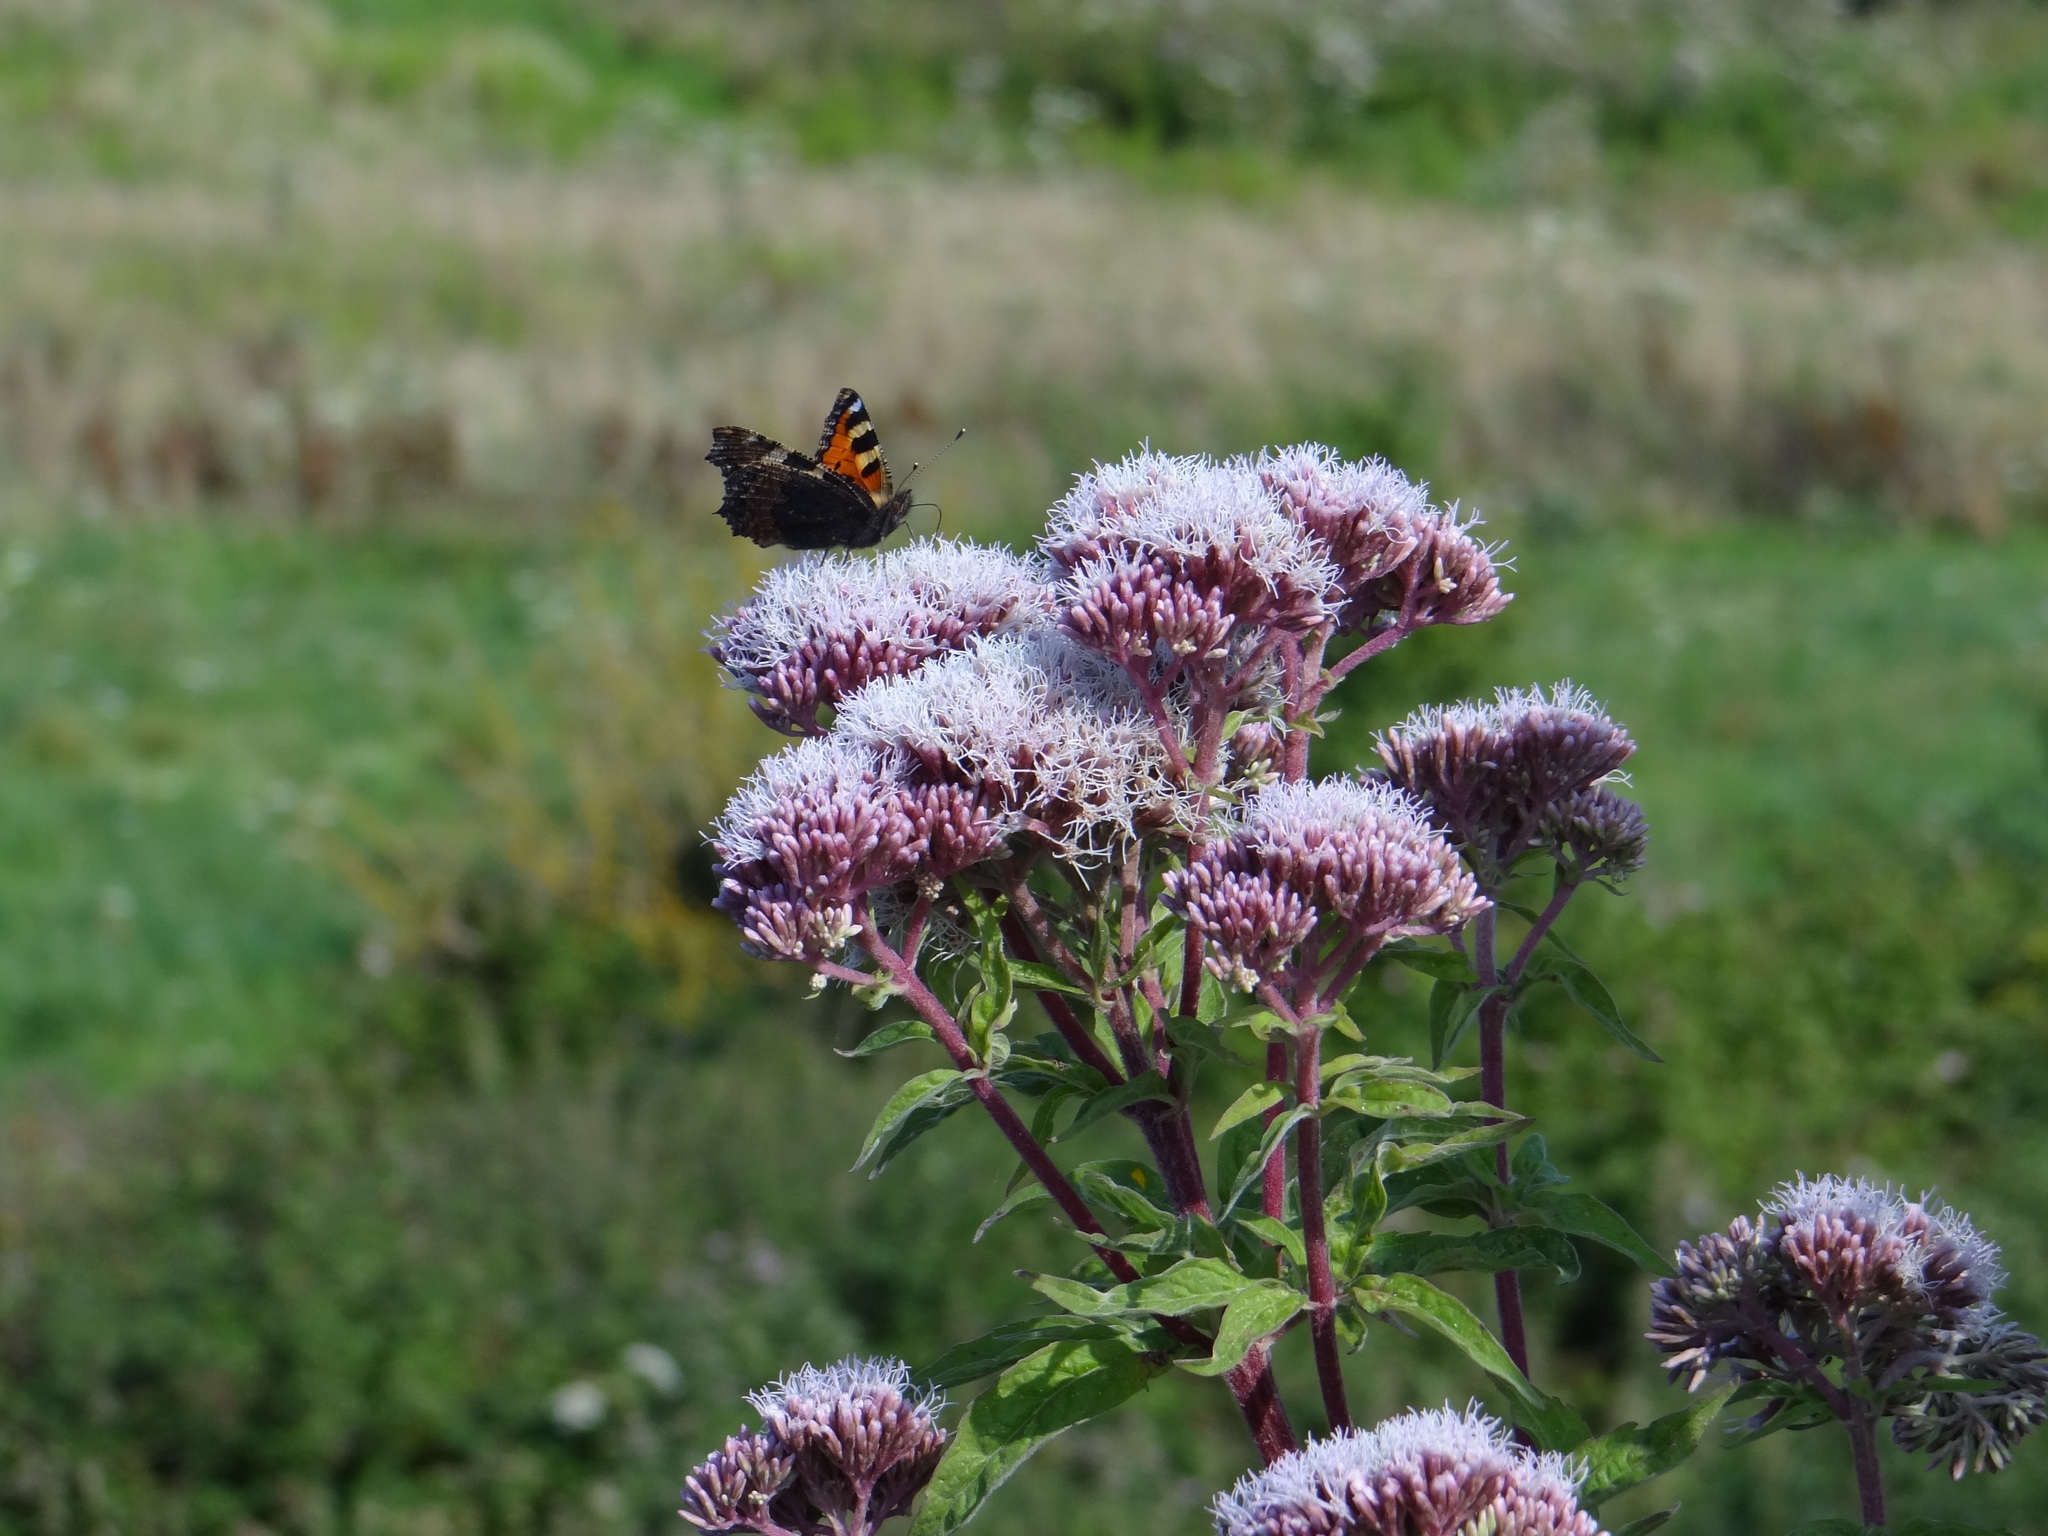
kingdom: Animalia
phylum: Arthropoda
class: Insecta
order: Lepidoptera
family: Nymphalidae
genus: Aglais
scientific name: Aglais urticae
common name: Small tortoiseshell
